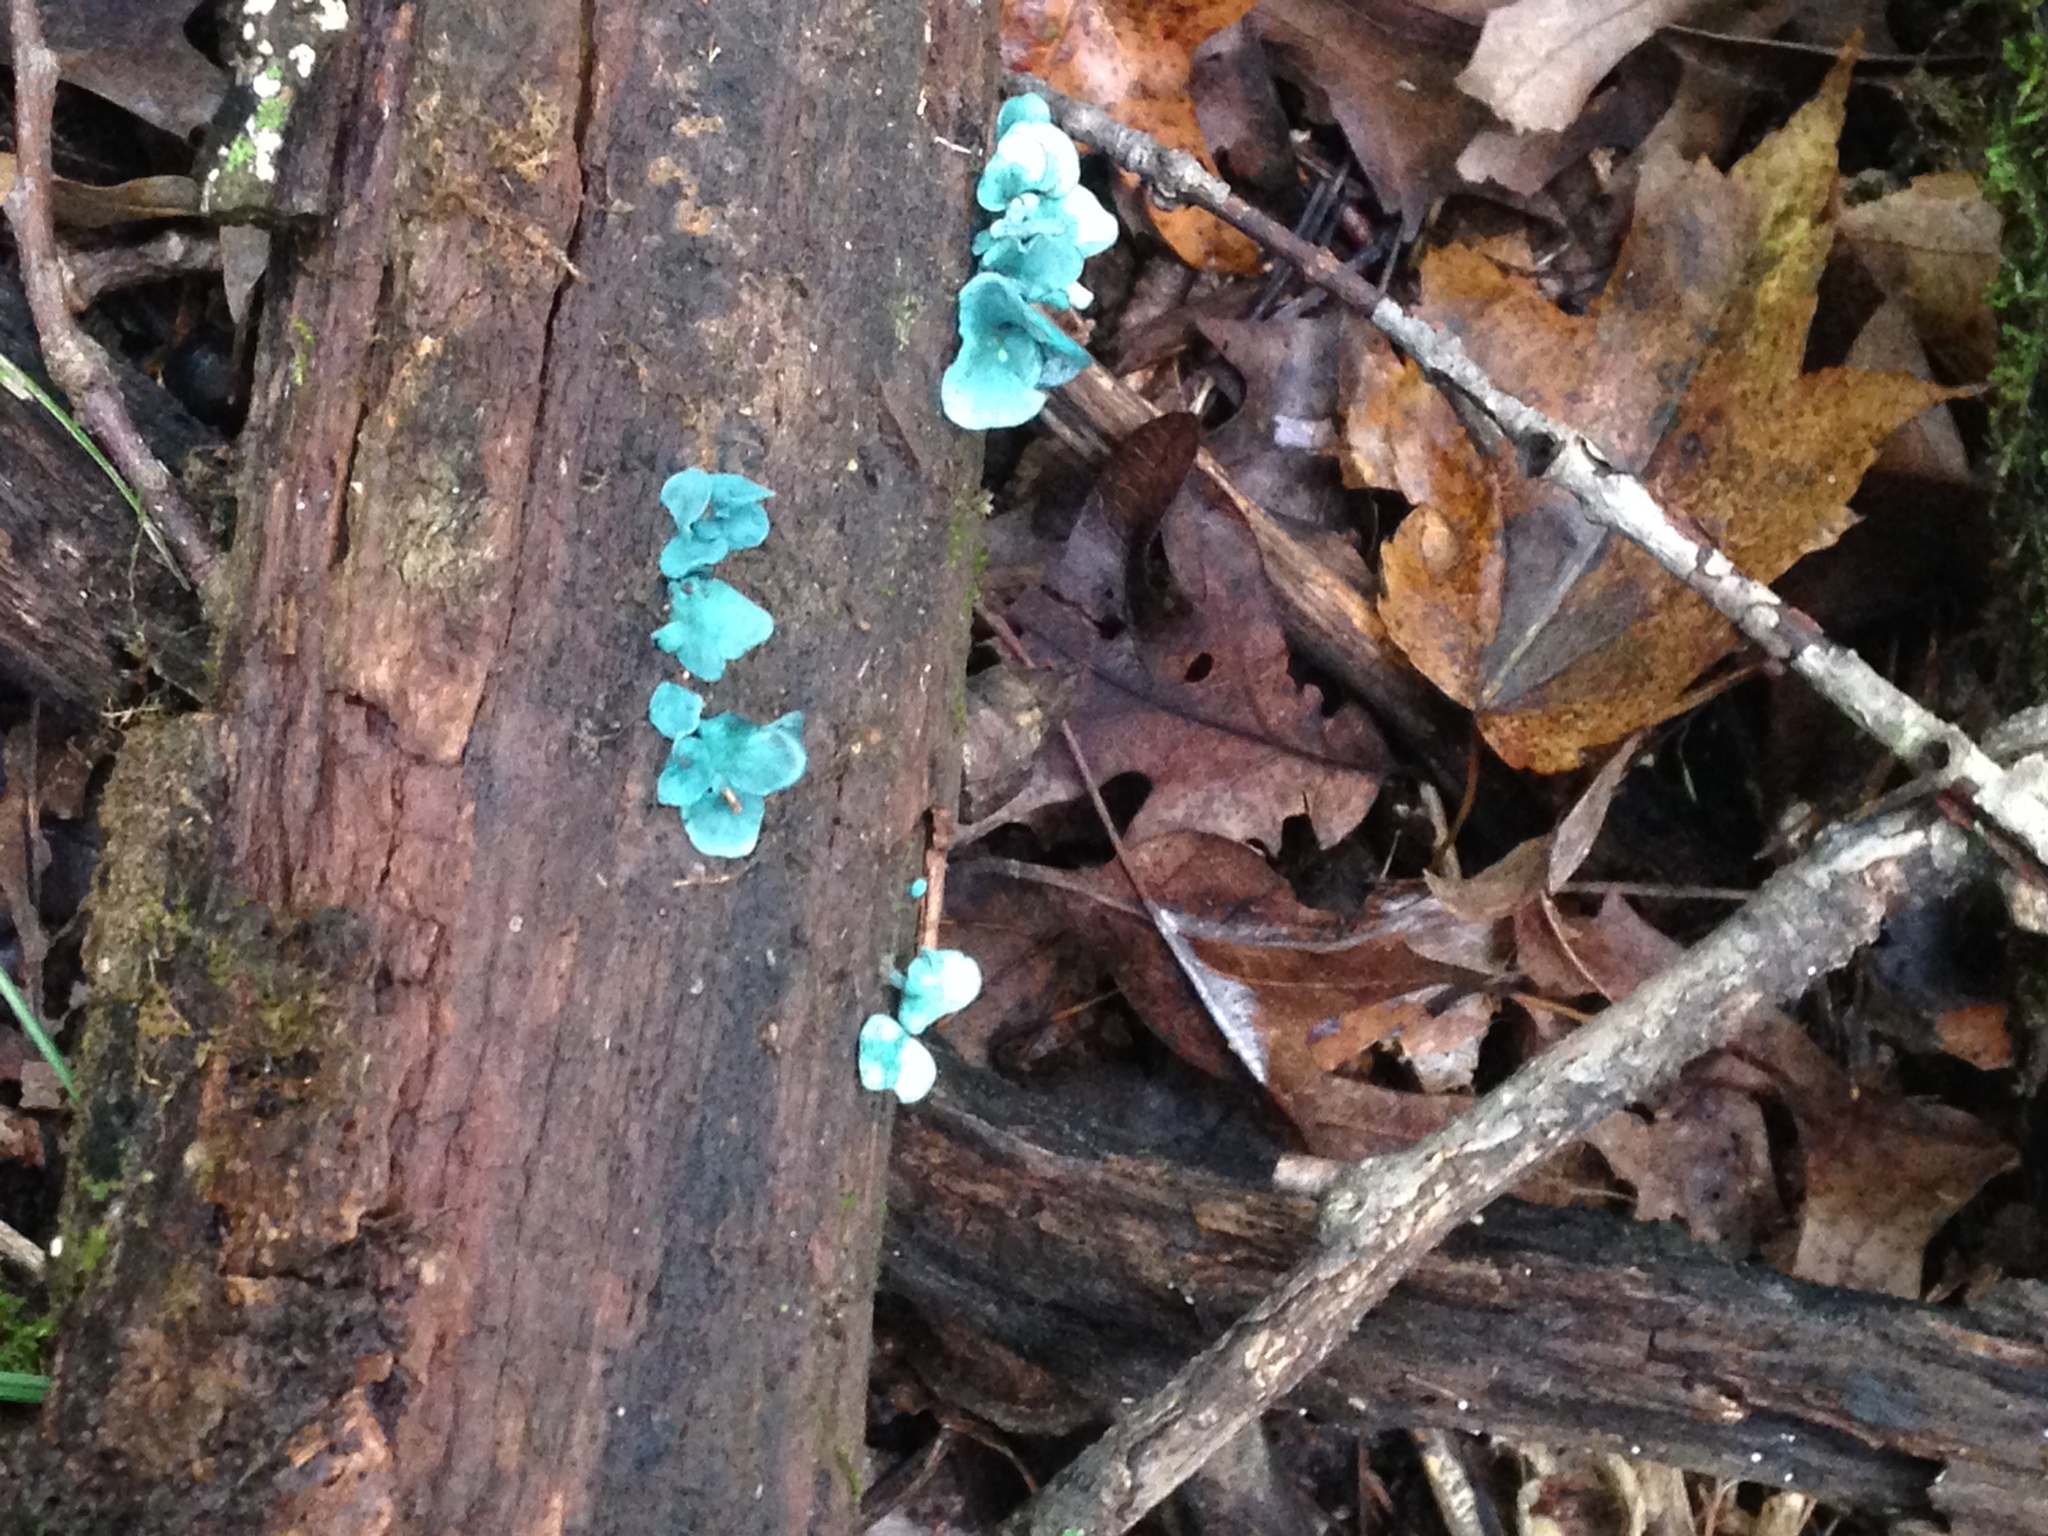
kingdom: Fungi
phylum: Ascomycota
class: Leotiomycetes
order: Helotiales
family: Chlorociboriaceae
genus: Chlorociboria
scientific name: Chlorociboria aeruginascens
